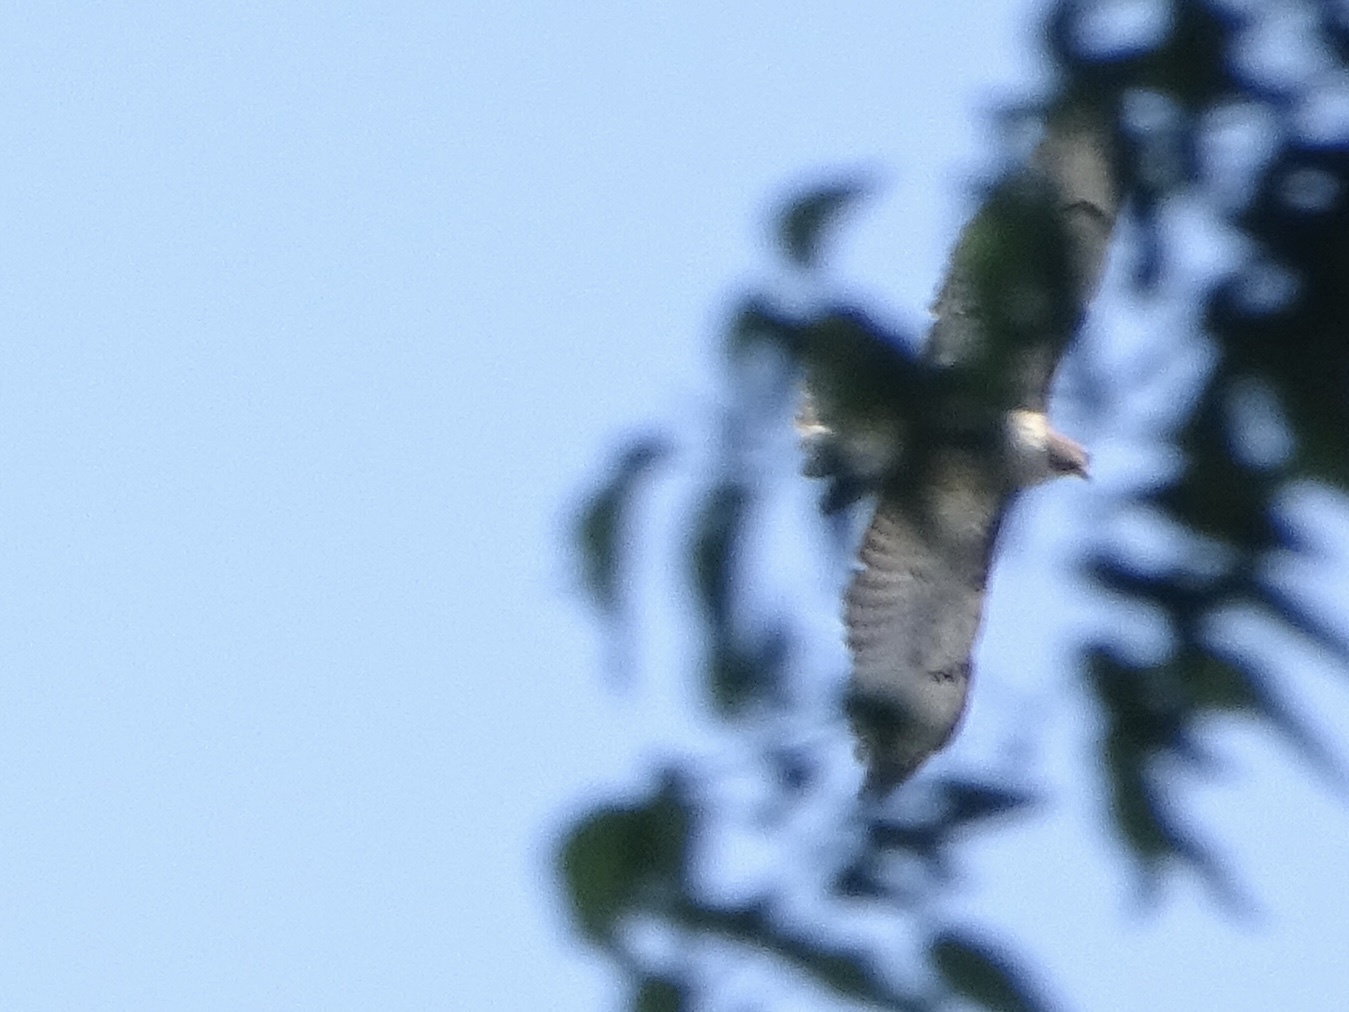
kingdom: Animalia
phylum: Chordata
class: Aves
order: Accipitriformes
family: Accipitridae
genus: Buteo
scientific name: Buteo jamaicensis
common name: Red-tailed hawk
